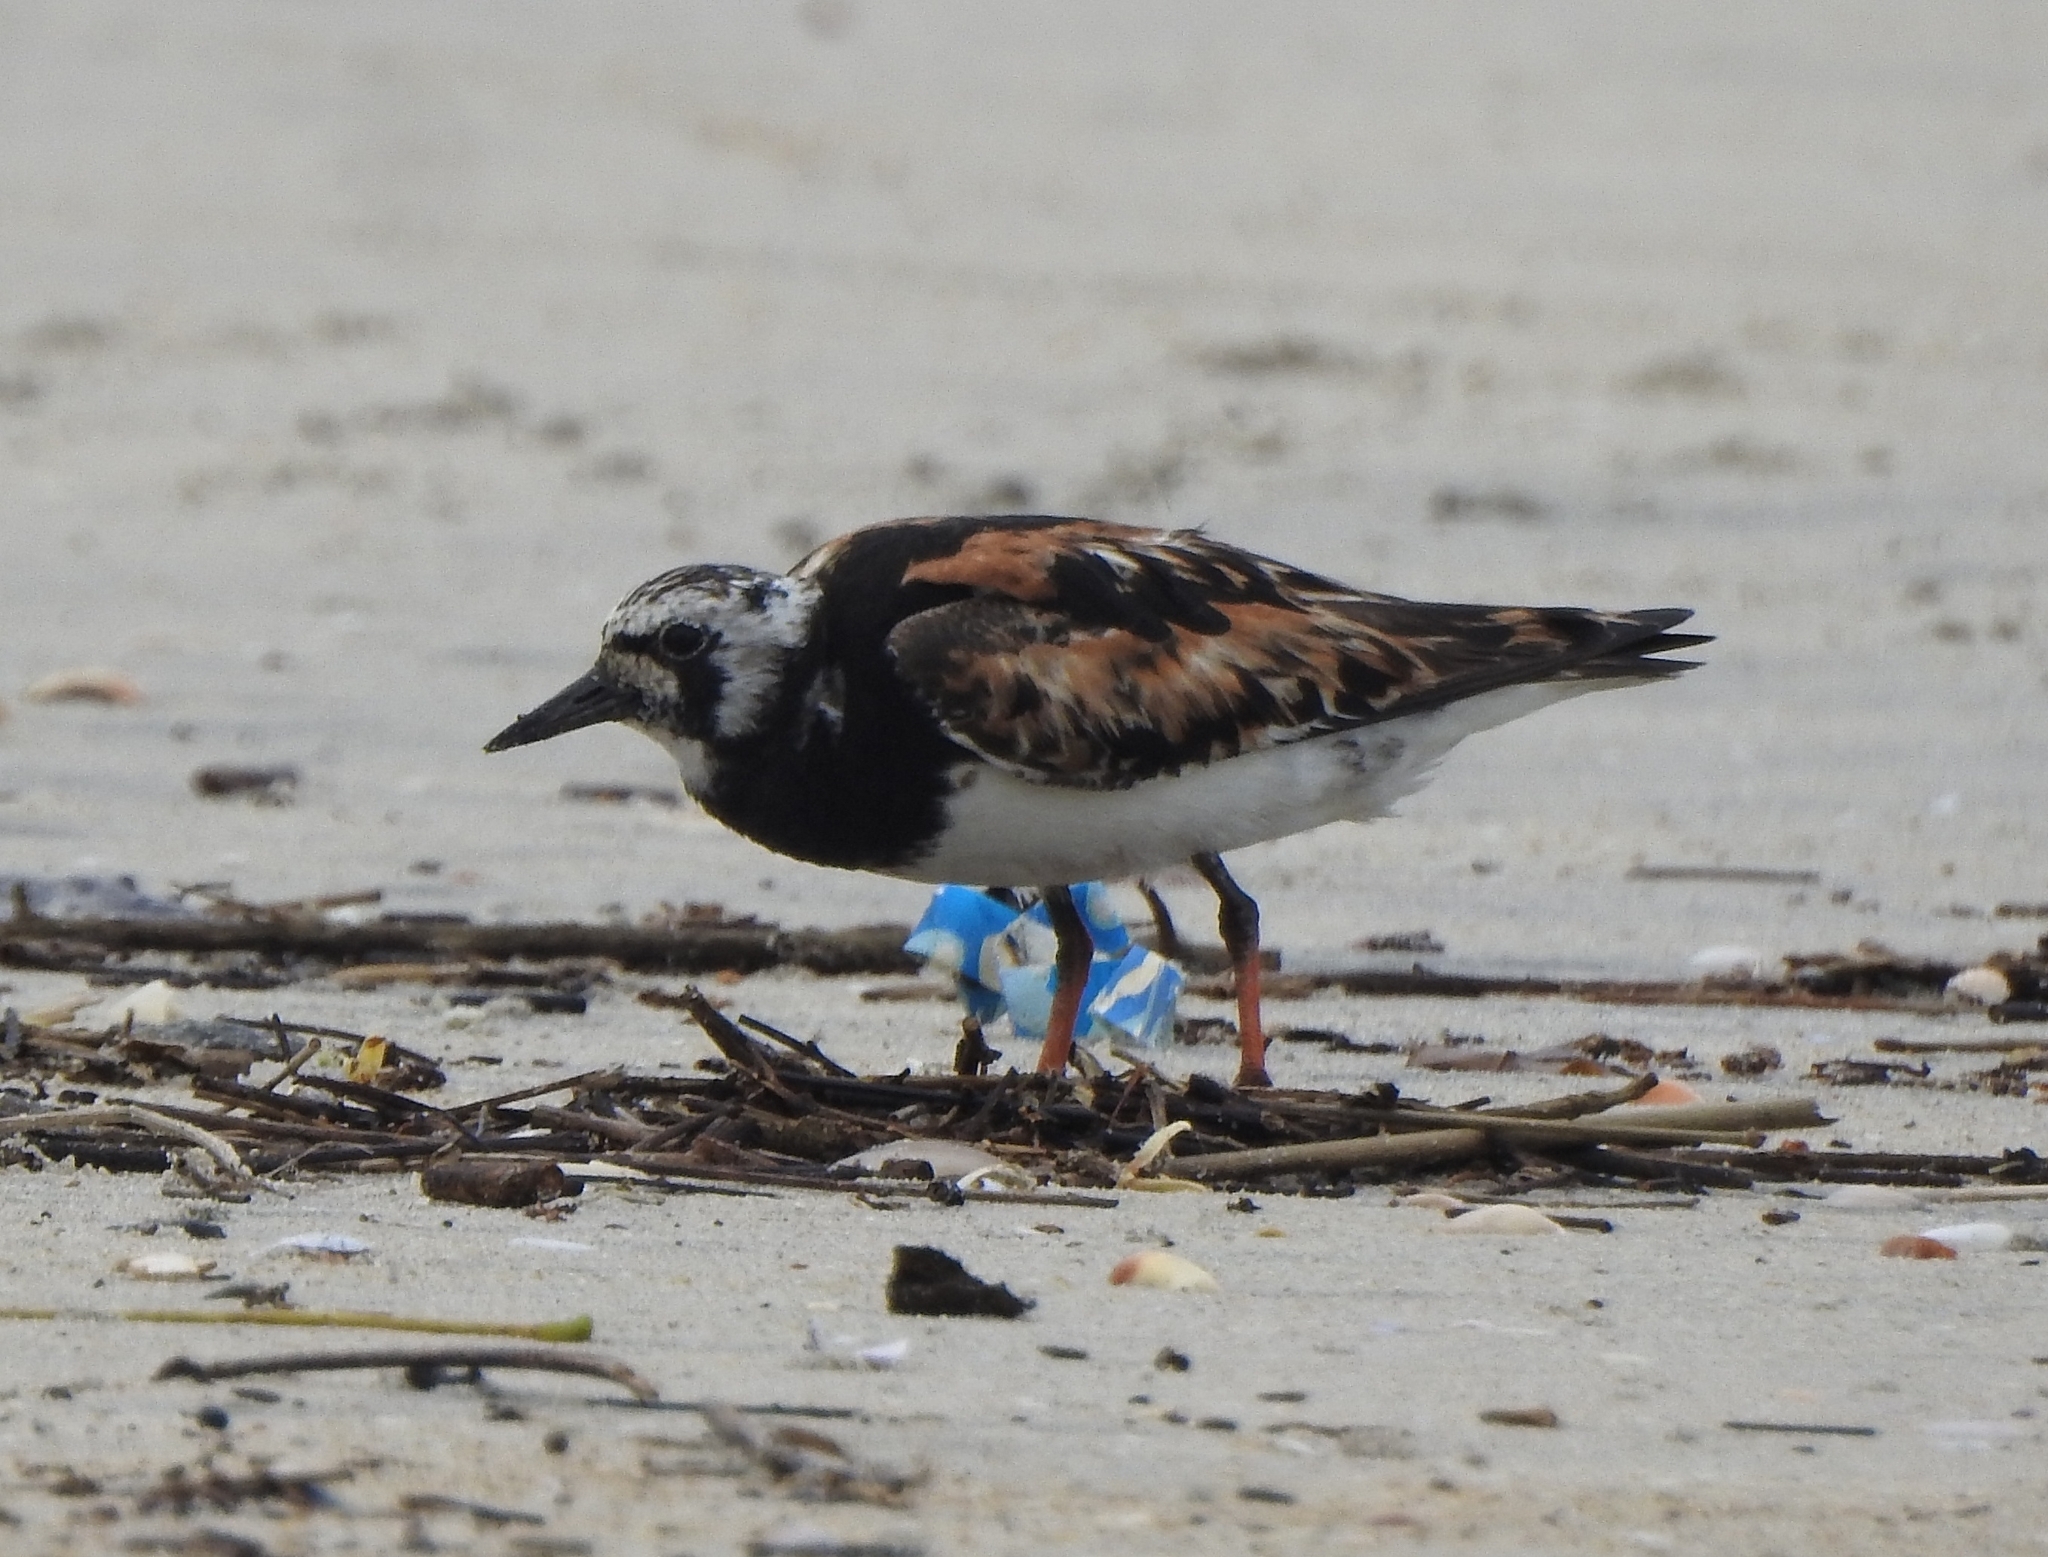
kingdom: Animalia
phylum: Chordata
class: Aves
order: Charadriiformes
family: Scolopacidae
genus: Arenaria
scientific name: Arenaria interpres
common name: Ruddy turnstone
